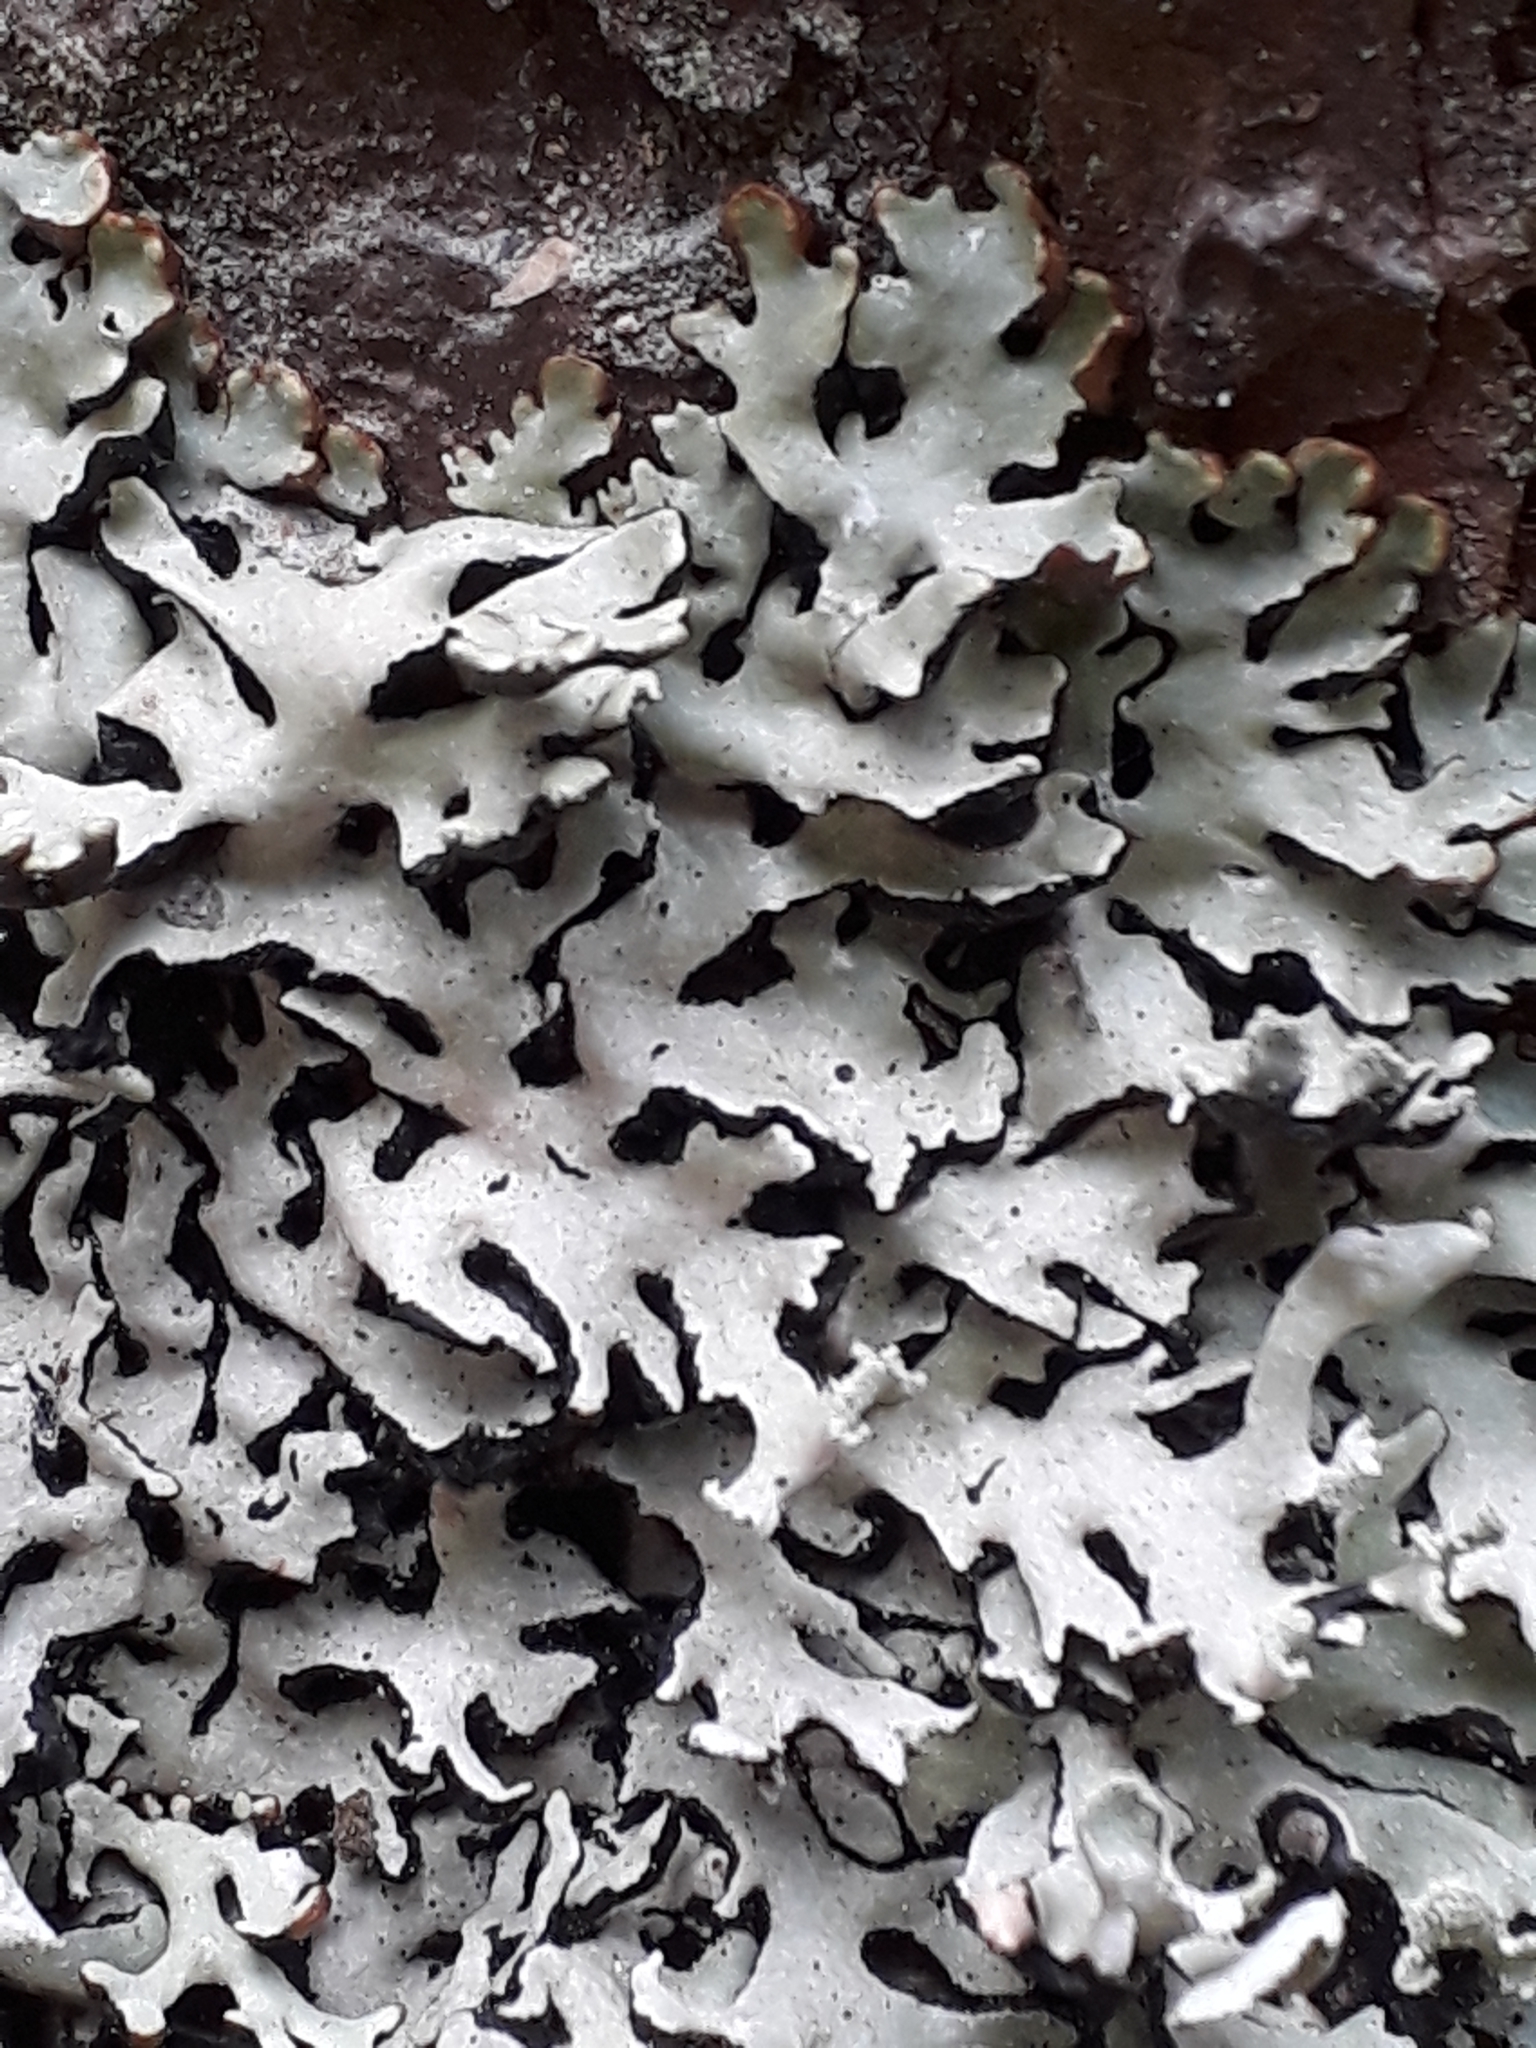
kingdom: Fungi
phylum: Ascomycota
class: Lecanoromycetes
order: Lecanorales
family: Parmeliaceae
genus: Hypogymnia
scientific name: Hypogymnia physodes
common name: Dark crottle
